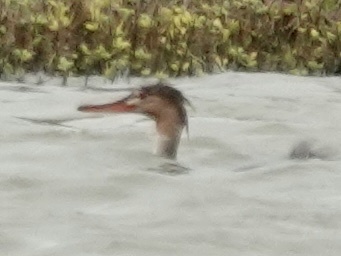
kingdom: Animalia
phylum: Chordata
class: Aves
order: Anseriformes
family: Anatidae
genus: Mergus
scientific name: Mergus serrator
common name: Red-breasted merganser
